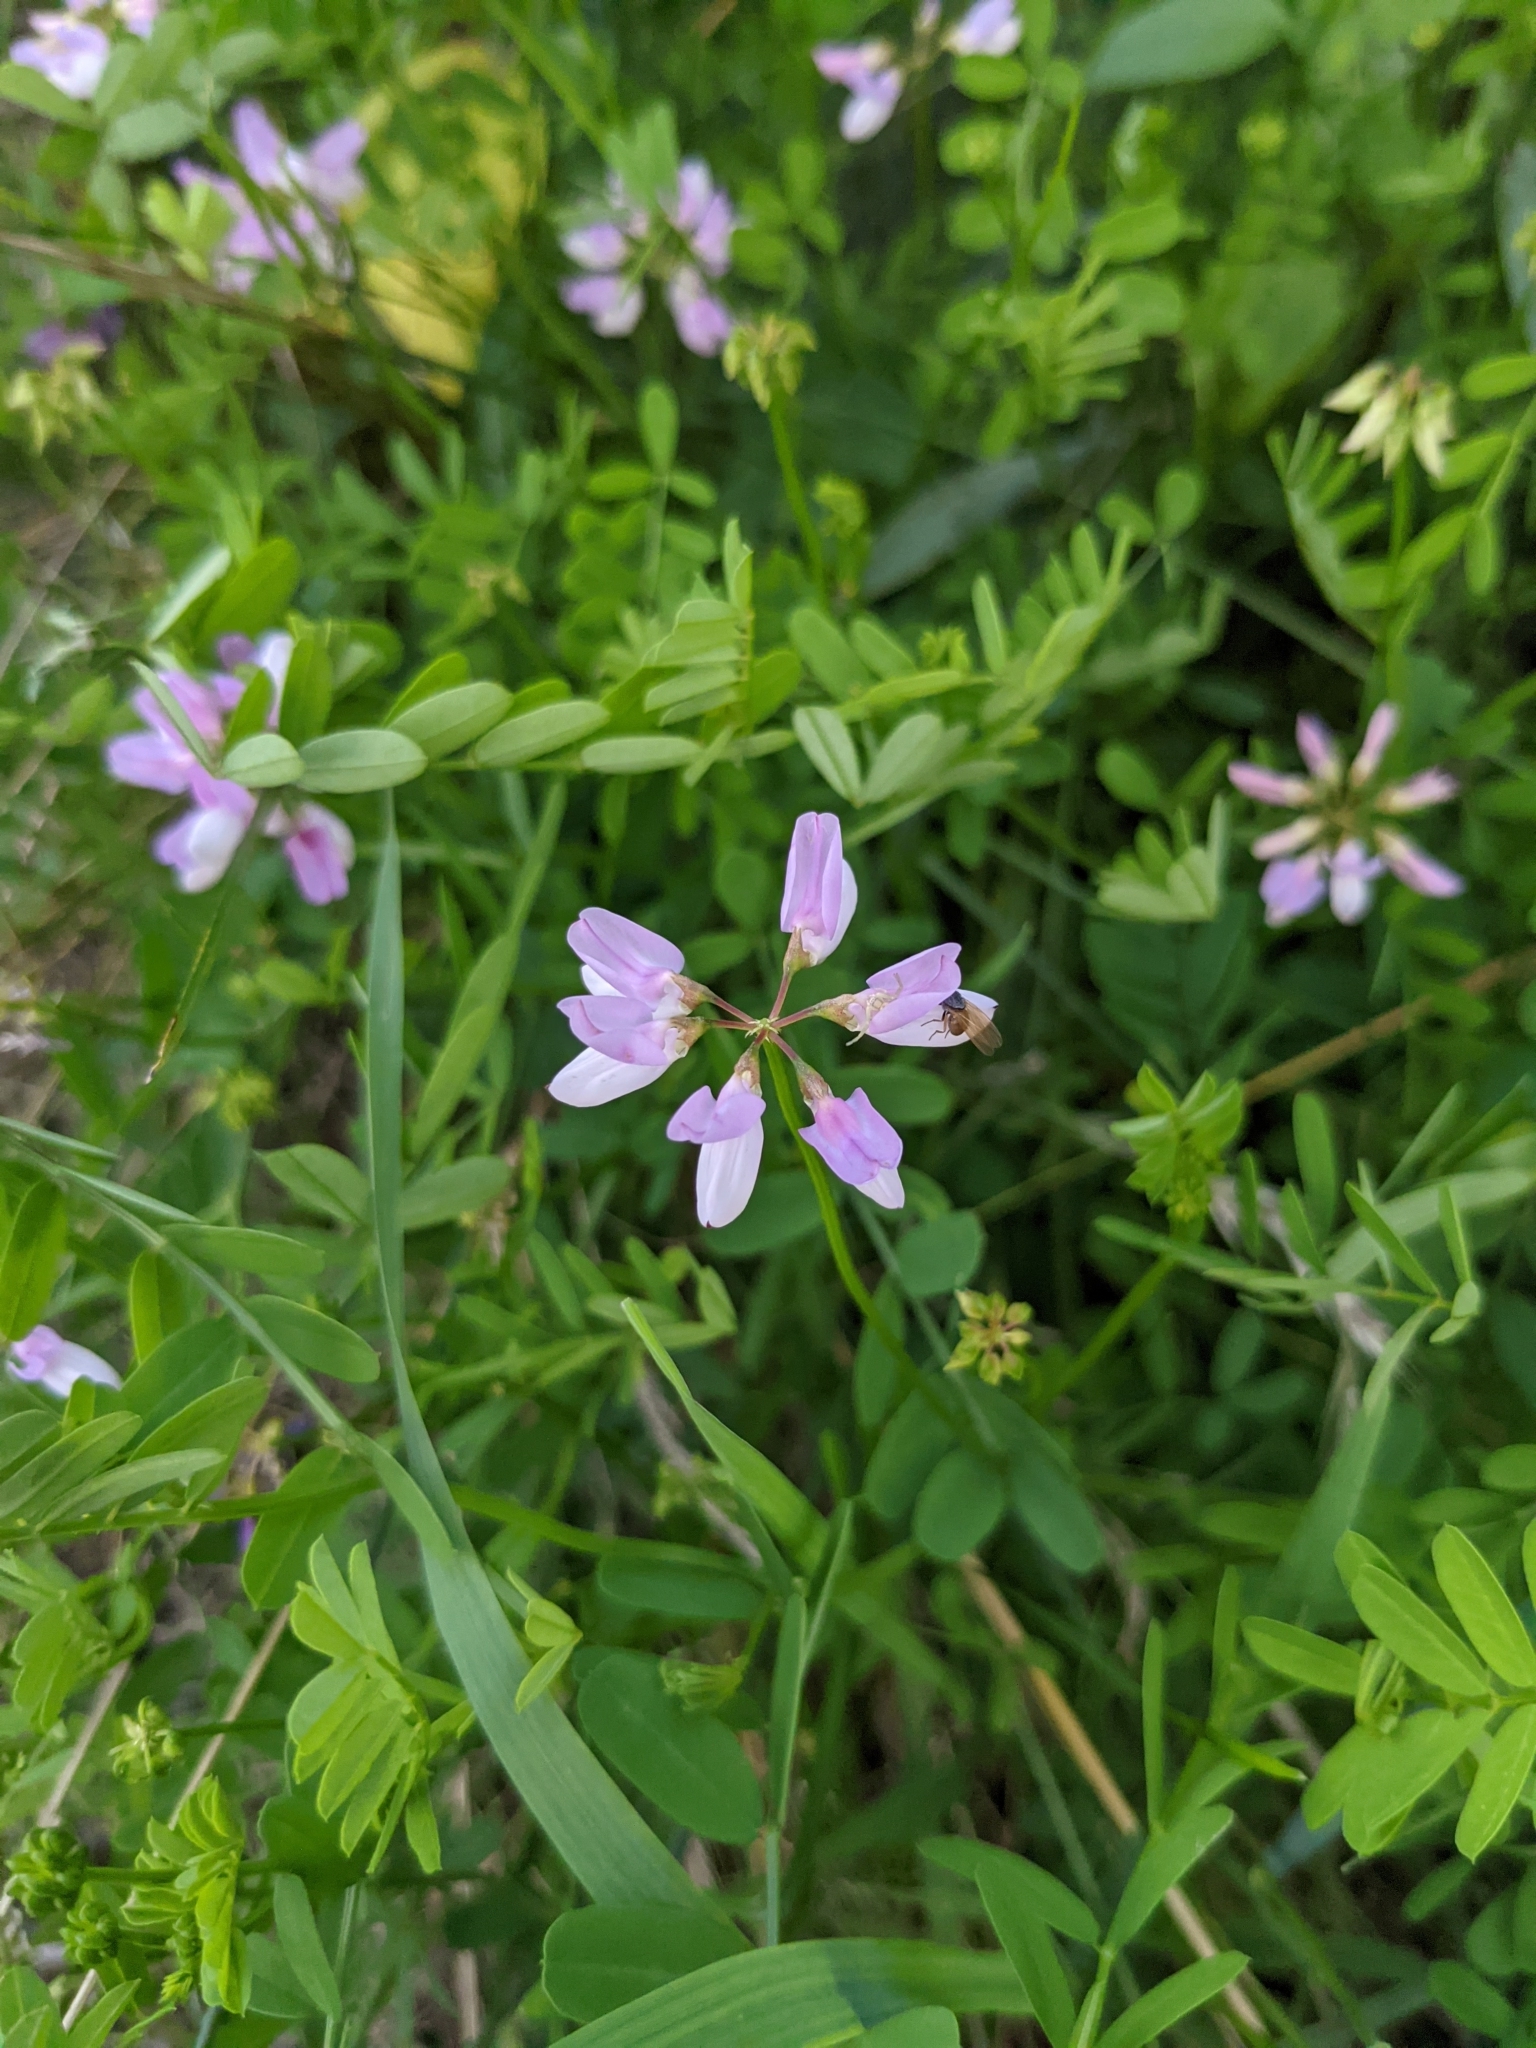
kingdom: Plantae
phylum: Tracheophyta
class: Magnoliopsida
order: Fabales
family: Fabaceae
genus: Coronilla
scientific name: Coronilla varia
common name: Crownvetch
